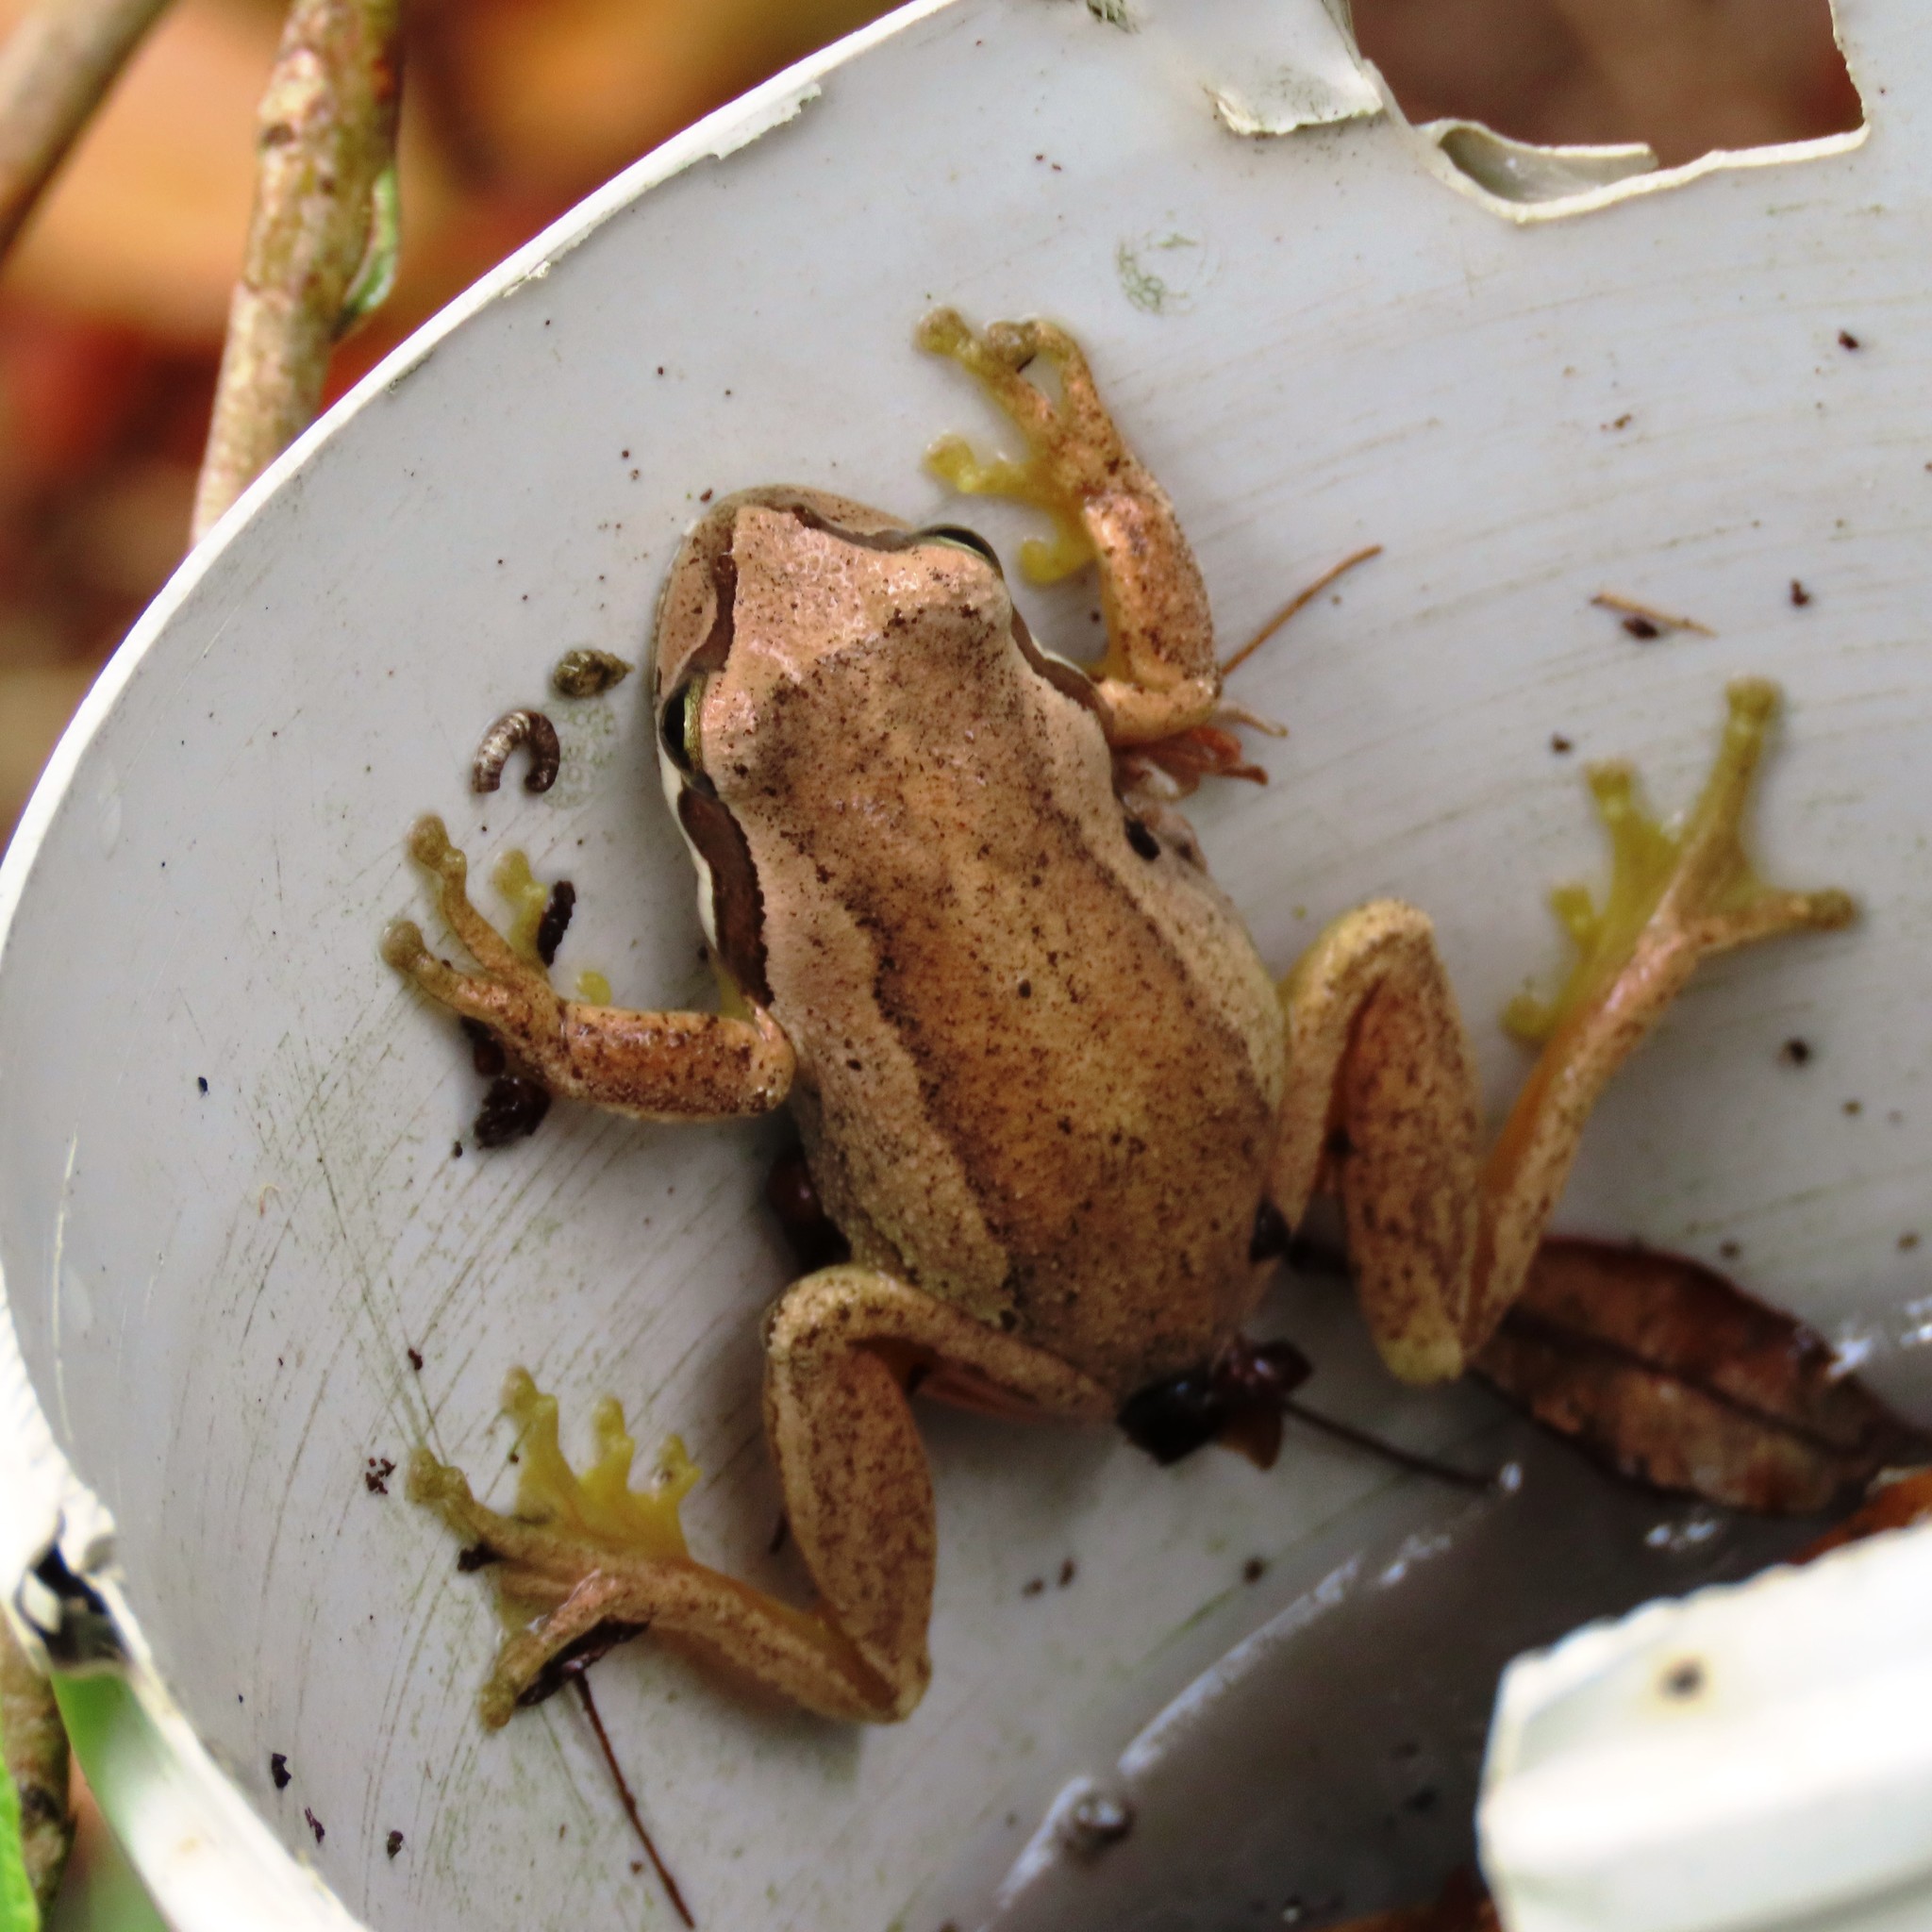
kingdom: Animalia
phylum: Chordata
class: Amphibia
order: Anura
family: Pelodryadidae
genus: Litoria
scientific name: Litoria ewingii
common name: Southern brown tree frog
